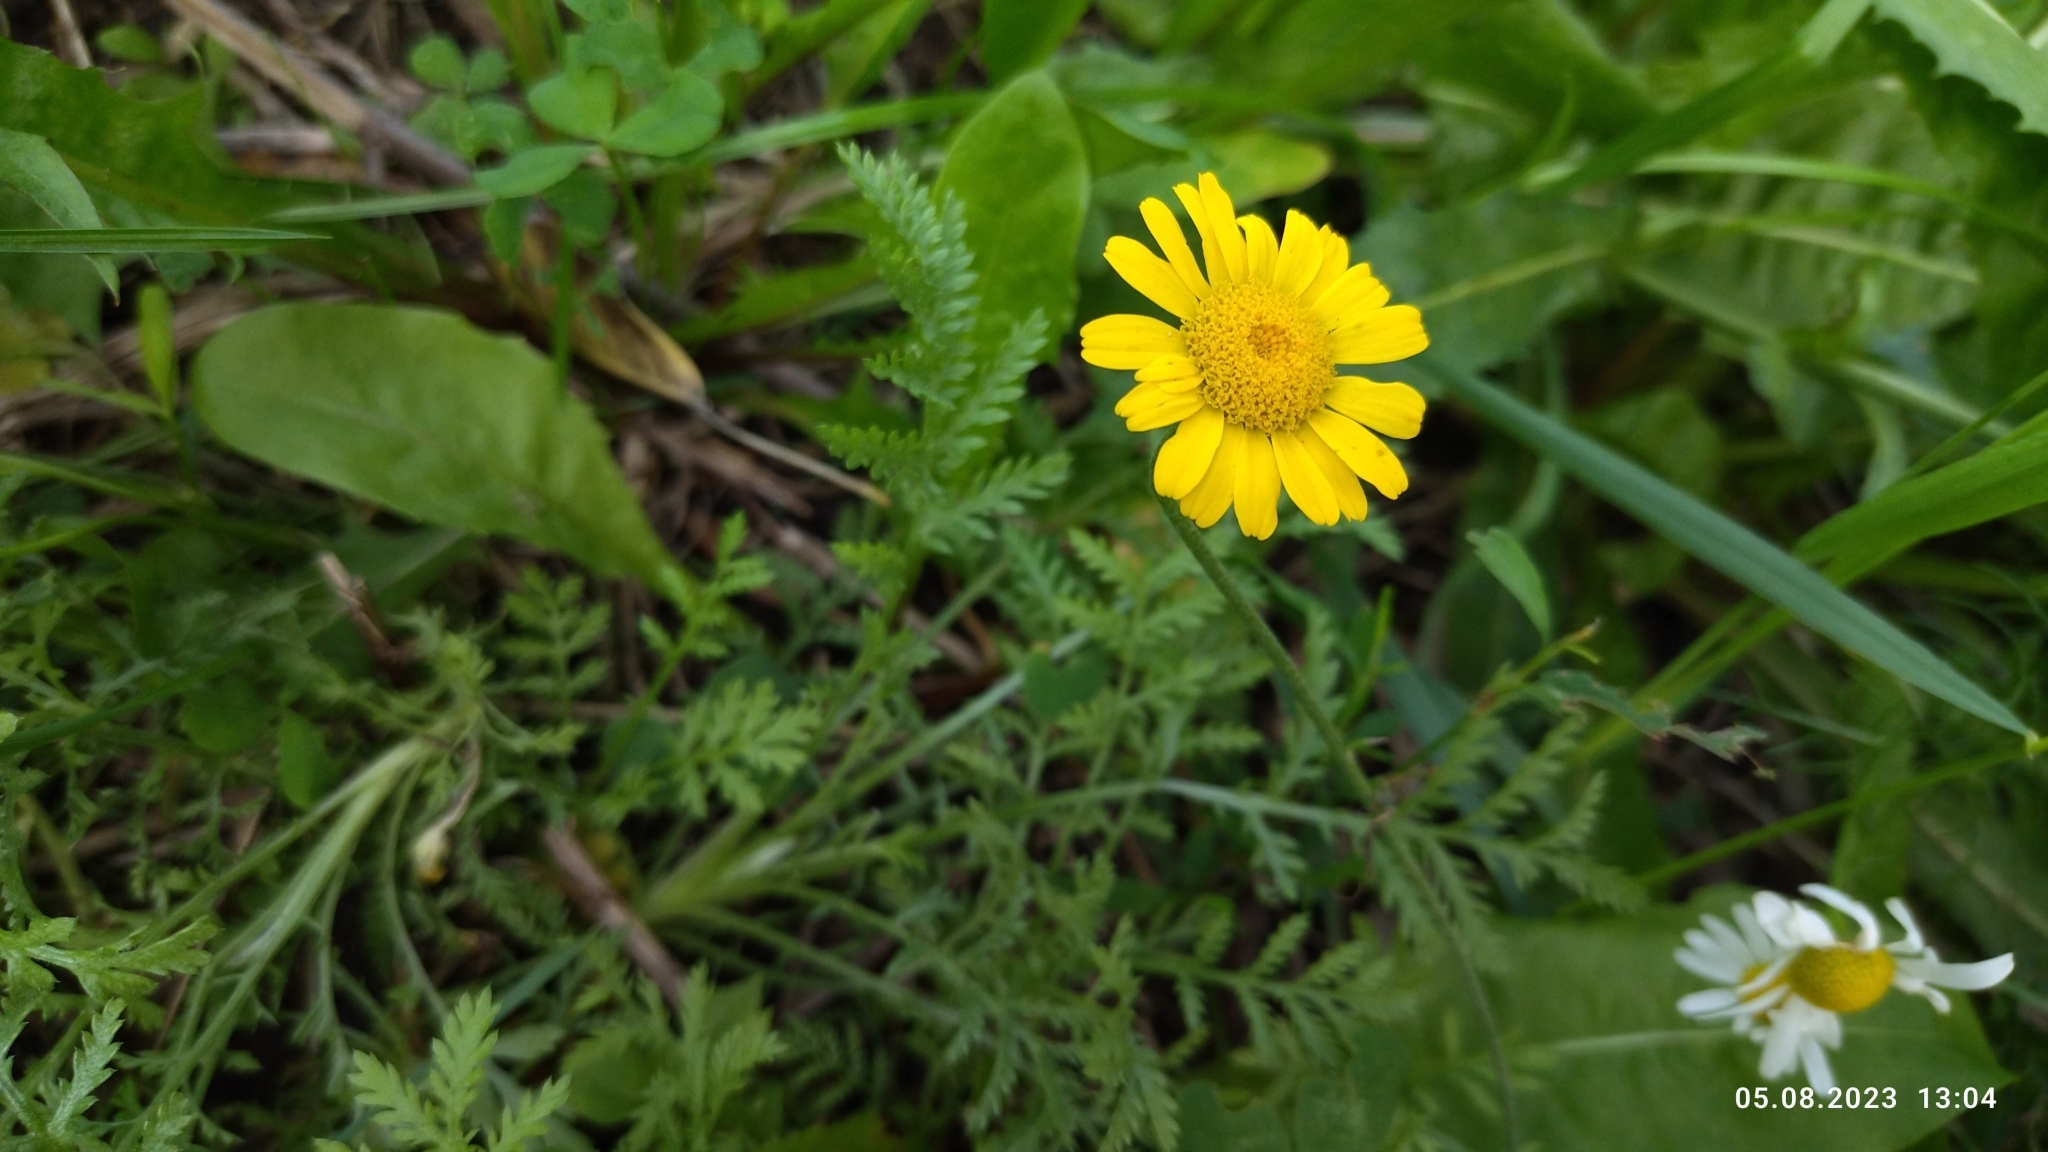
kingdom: Plantae
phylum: Tracheophyta
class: Magnoliopsida
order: Asterales
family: Asteraceae
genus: Cota
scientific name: Cota tinctoria
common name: Golden chamomile
